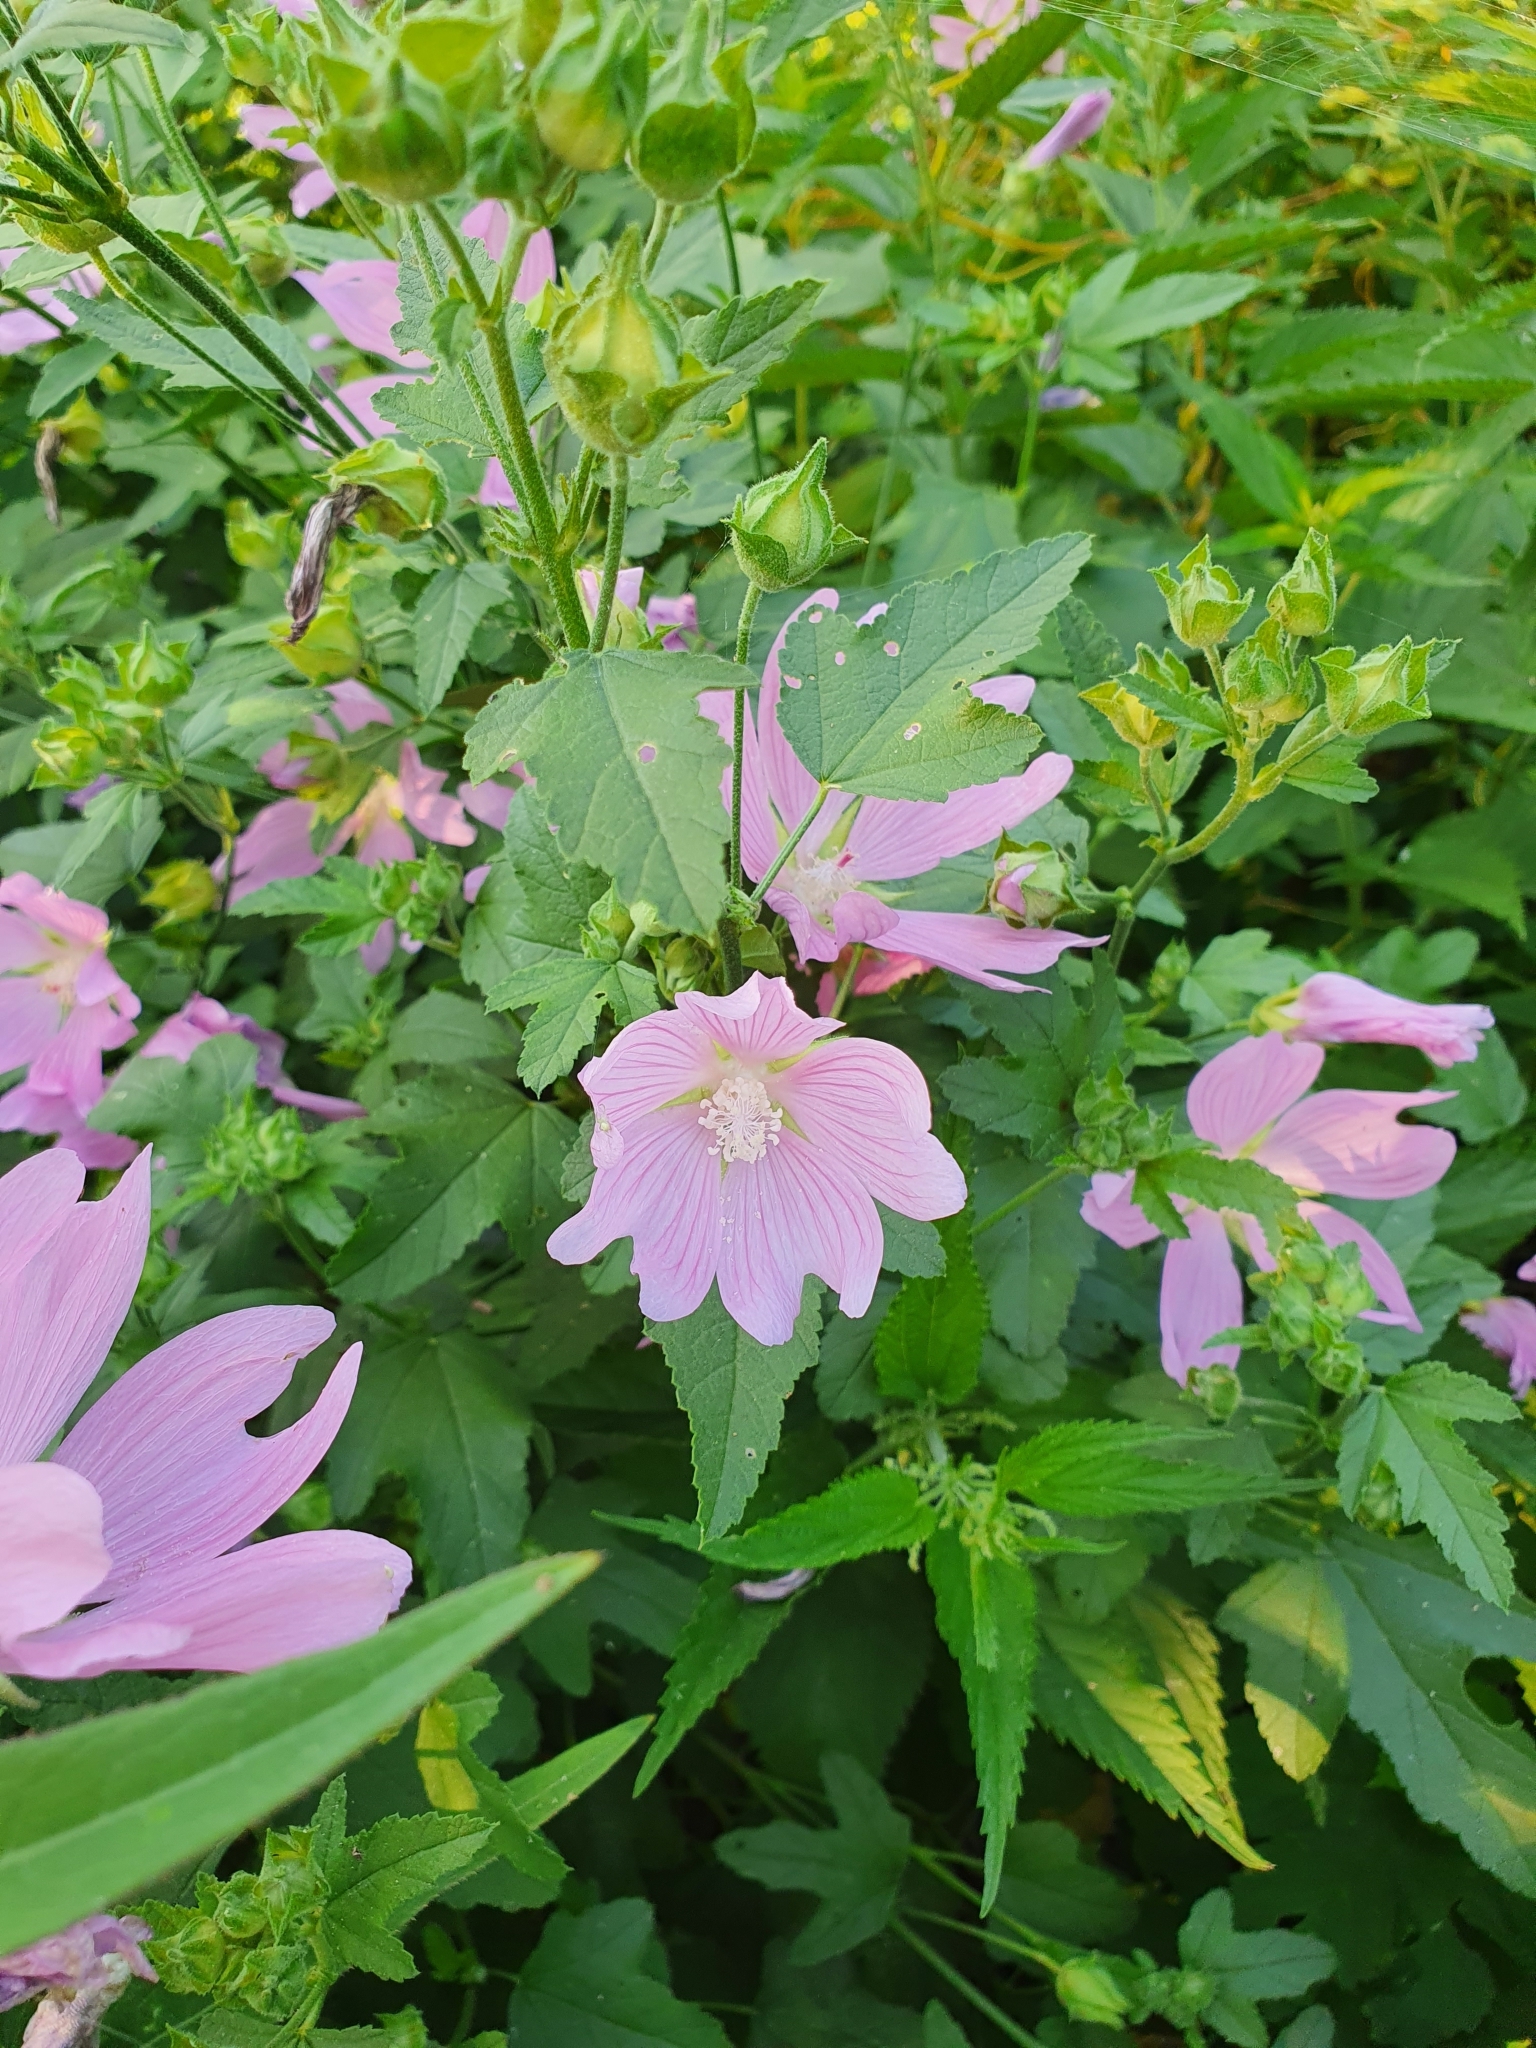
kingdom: Plantae
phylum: Tracheophyta
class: Magnoliopsida
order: Malvales
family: Malvaceae
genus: Malva
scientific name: Malva thuringiaca
